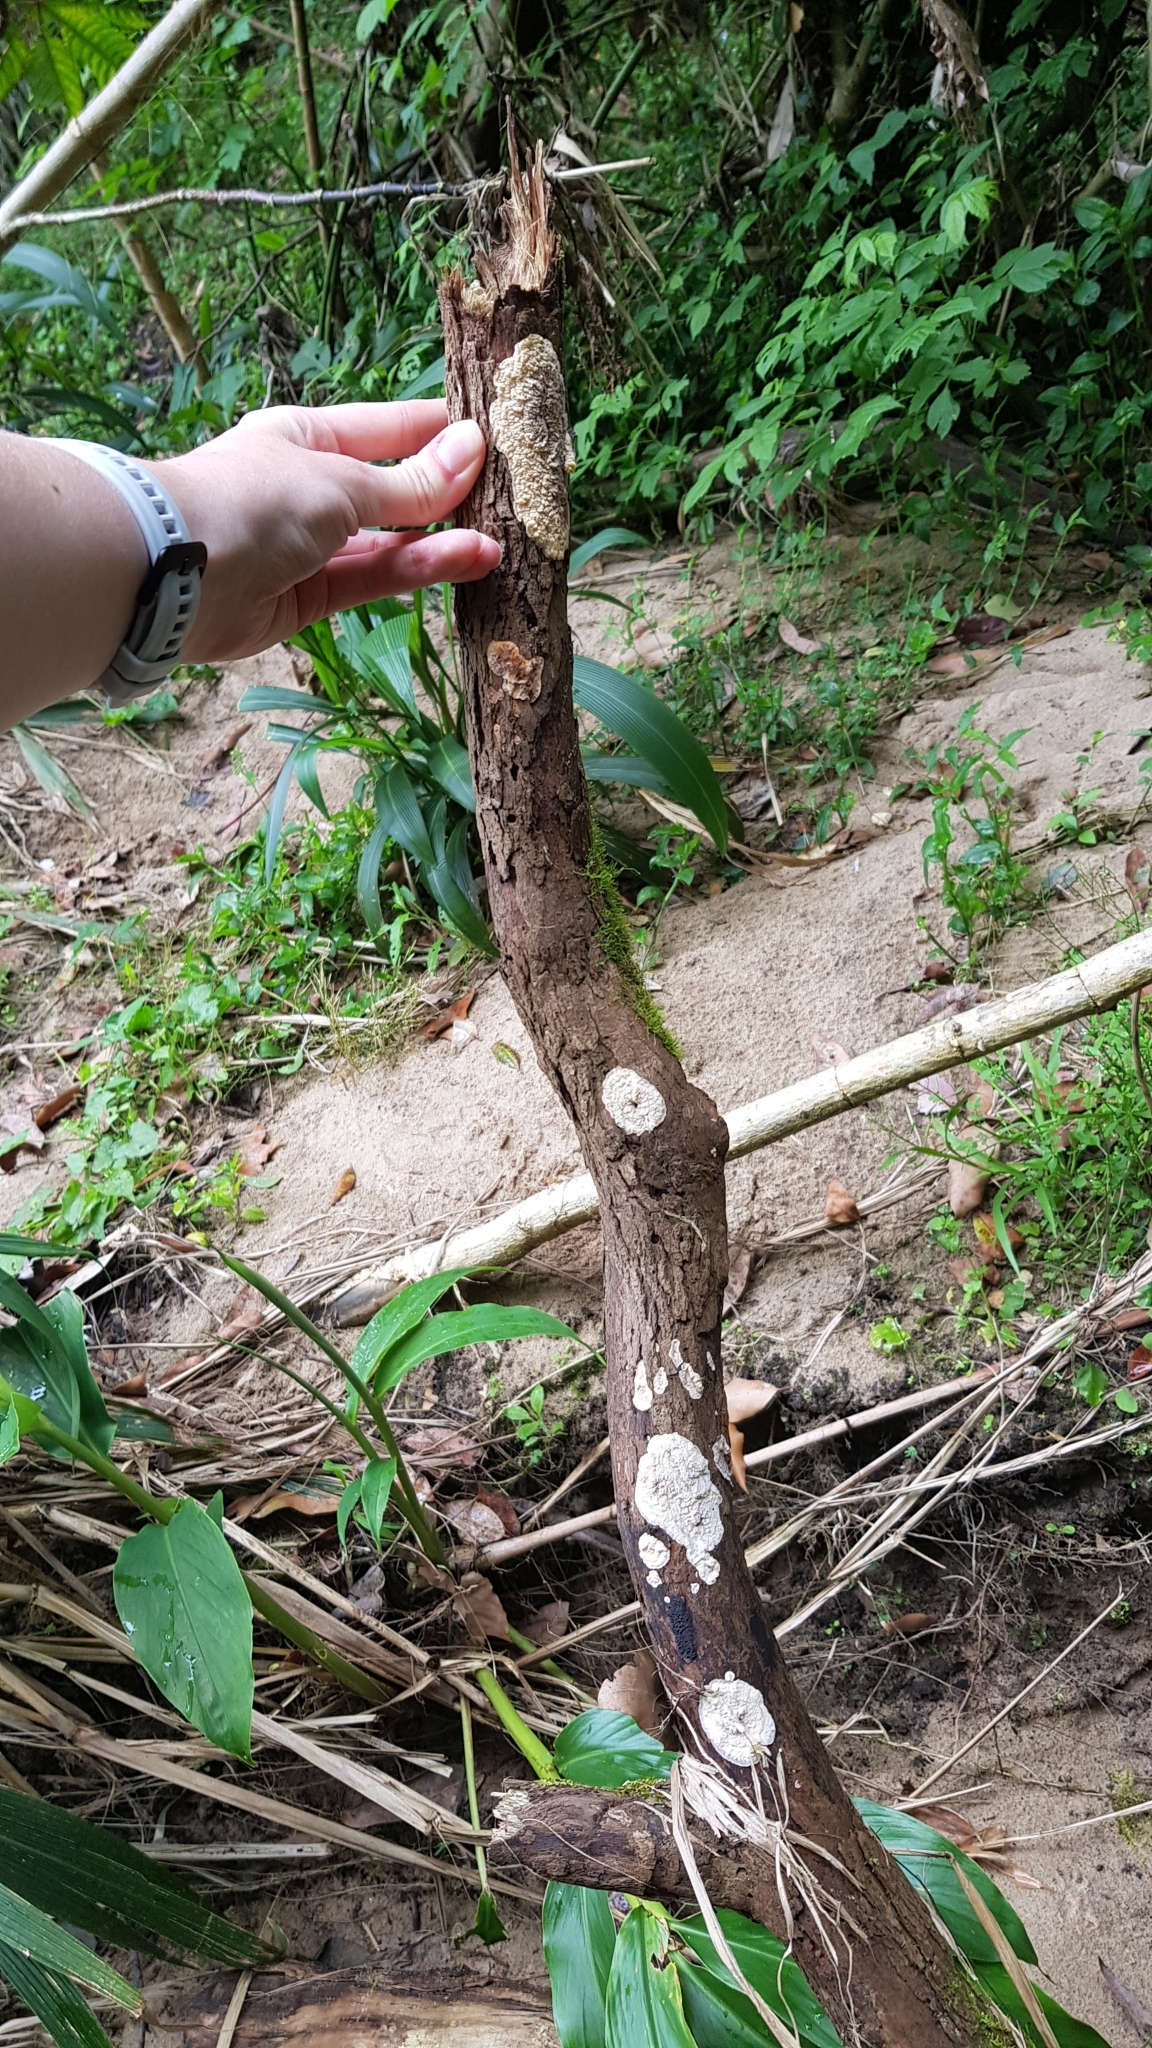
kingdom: Fungi
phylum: Ascomycota
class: Sordariomycetes
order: Xylariales
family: Hypoxylaceae
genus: Annulohypoxylon
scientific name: Annulohypoxylon bovei
